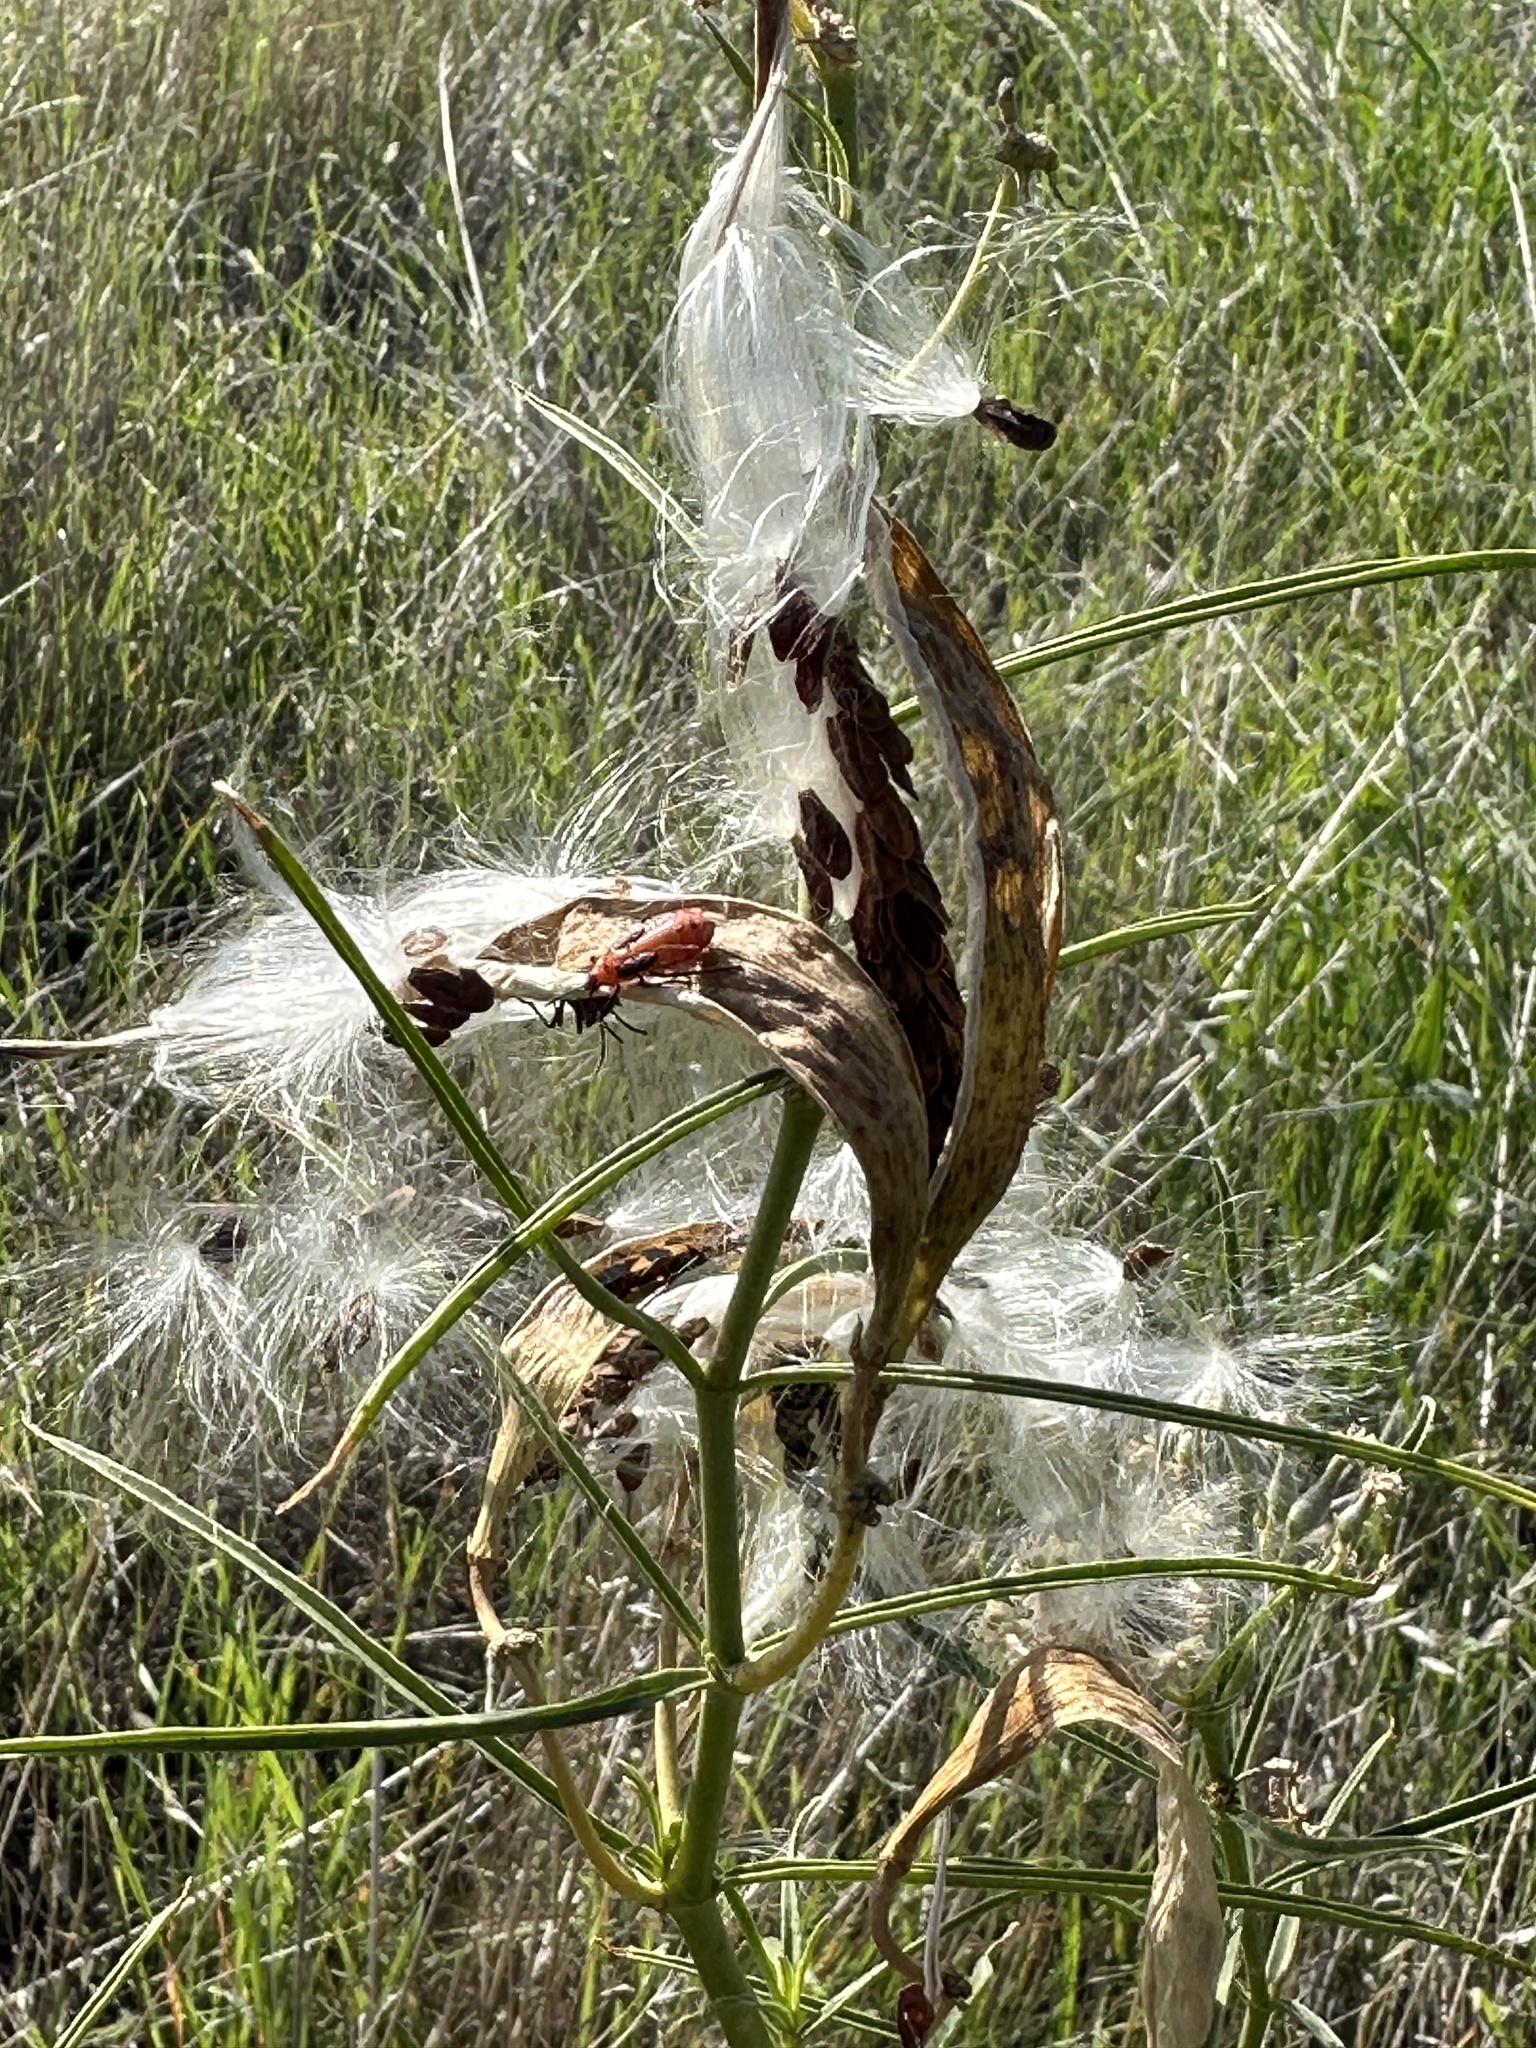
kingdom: Plantae
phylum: Tracheophyta
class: Magnoliopsida
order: Gentianales
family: Apocynaceae
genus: Asclepias
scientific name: Asclepias fascicularis
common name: Mexican milkweed
